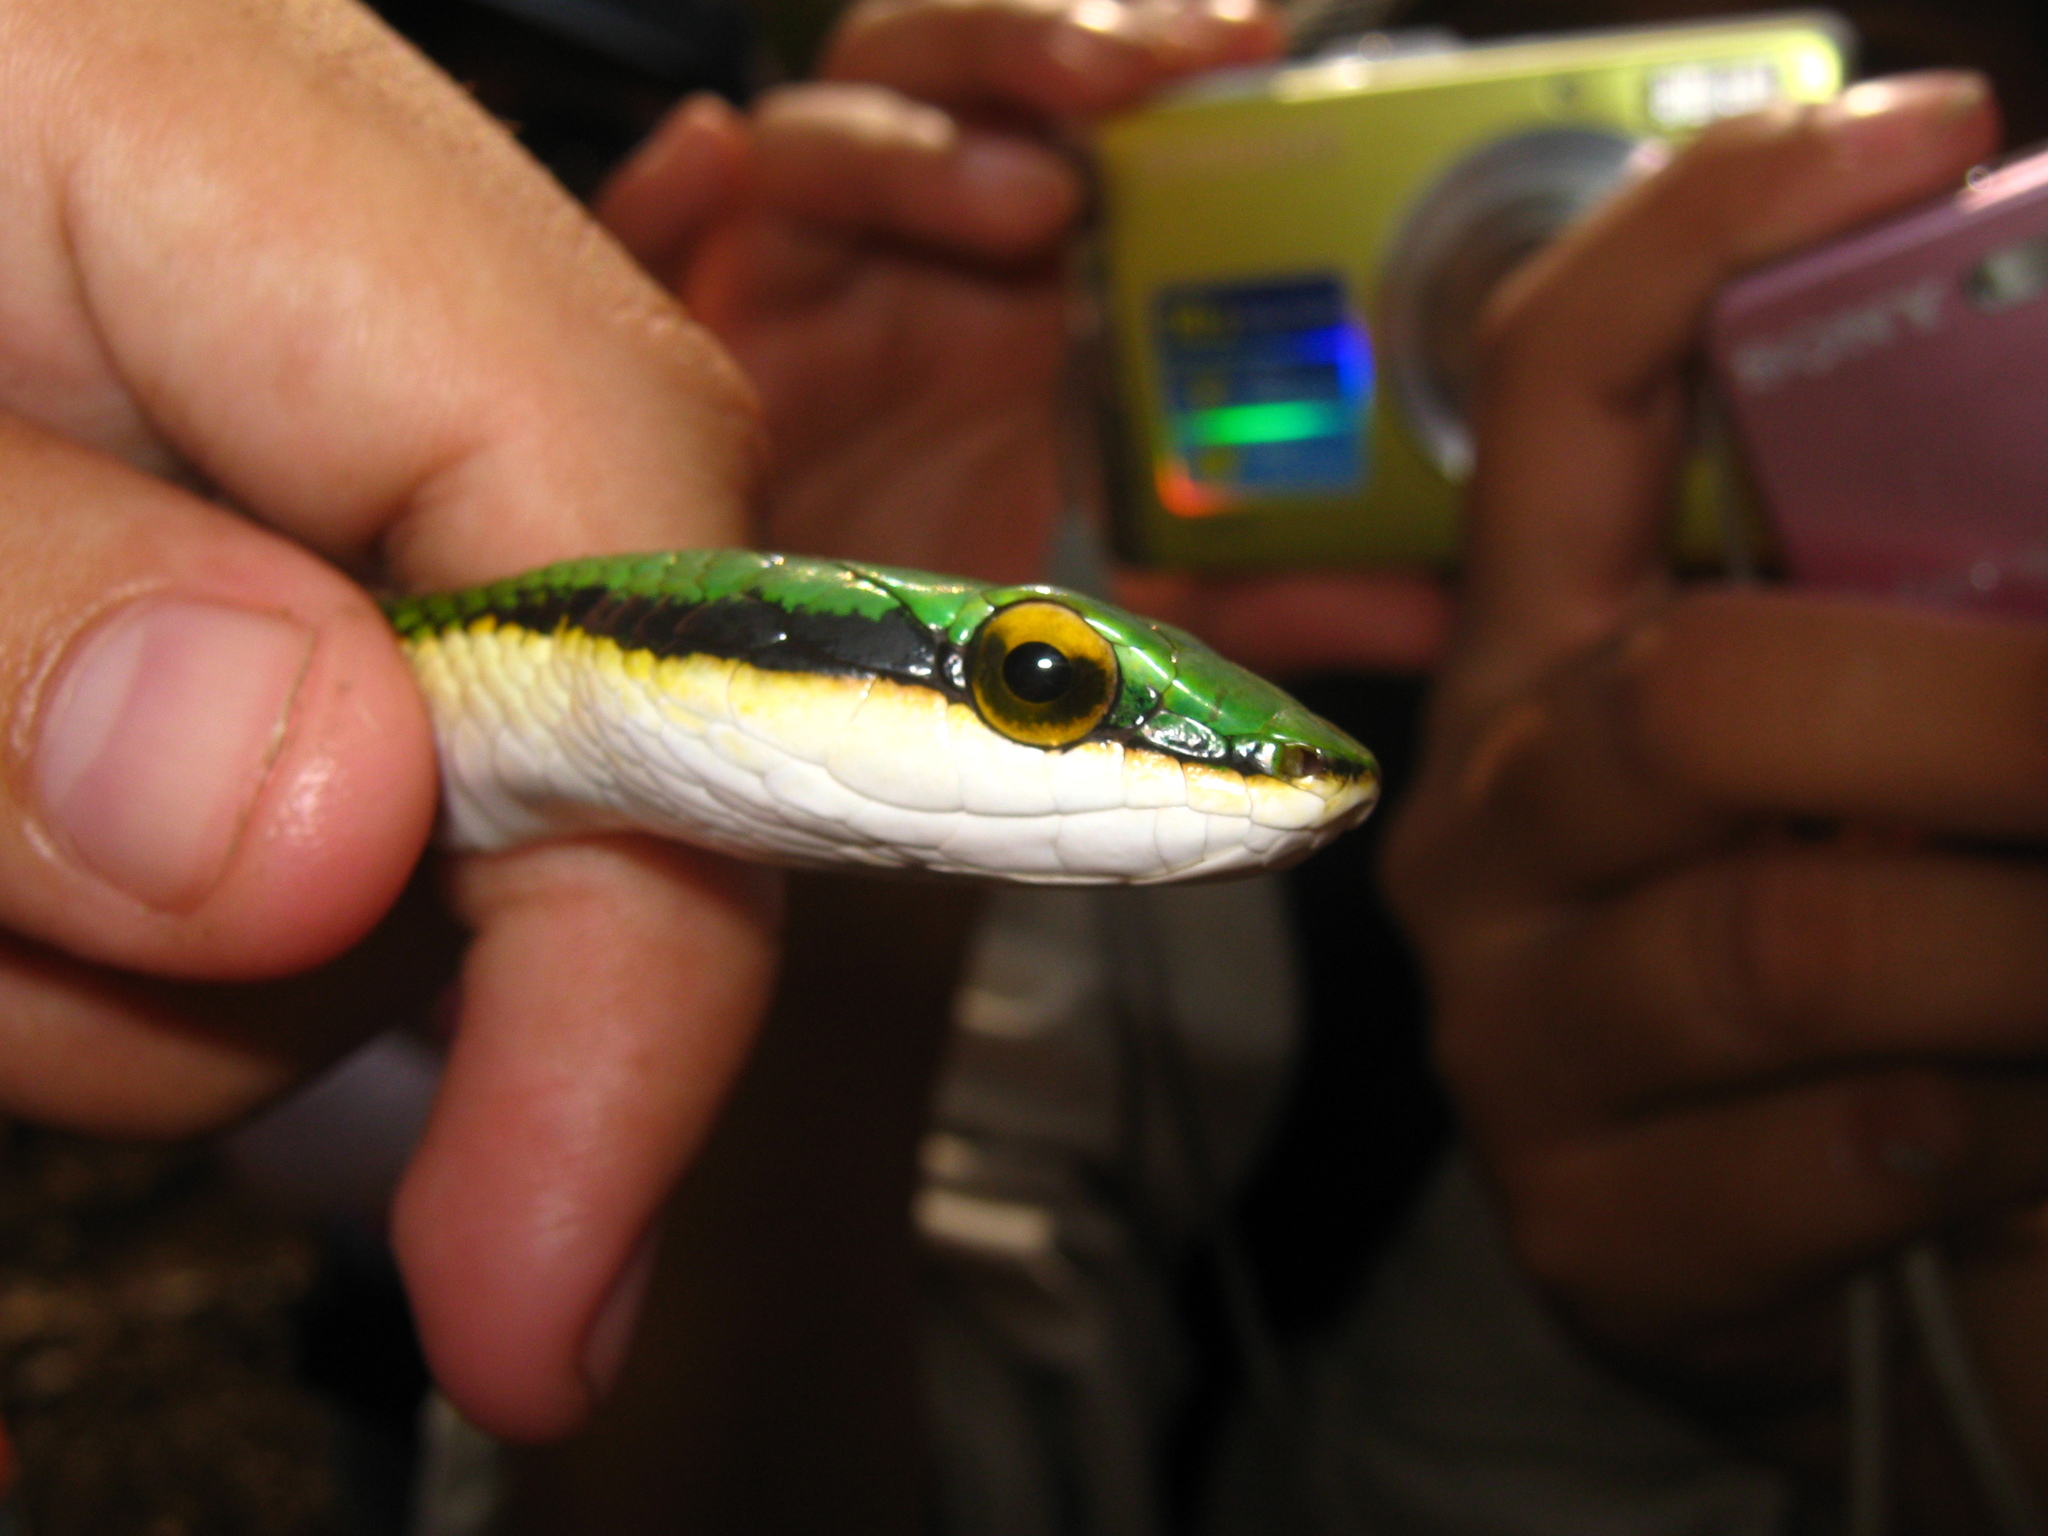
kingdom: Animalia
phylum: Chordata
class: Squamata
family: Colubridae
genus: Leptophis
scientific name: Leptophis mexicanus
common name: Mexican parrot snake
